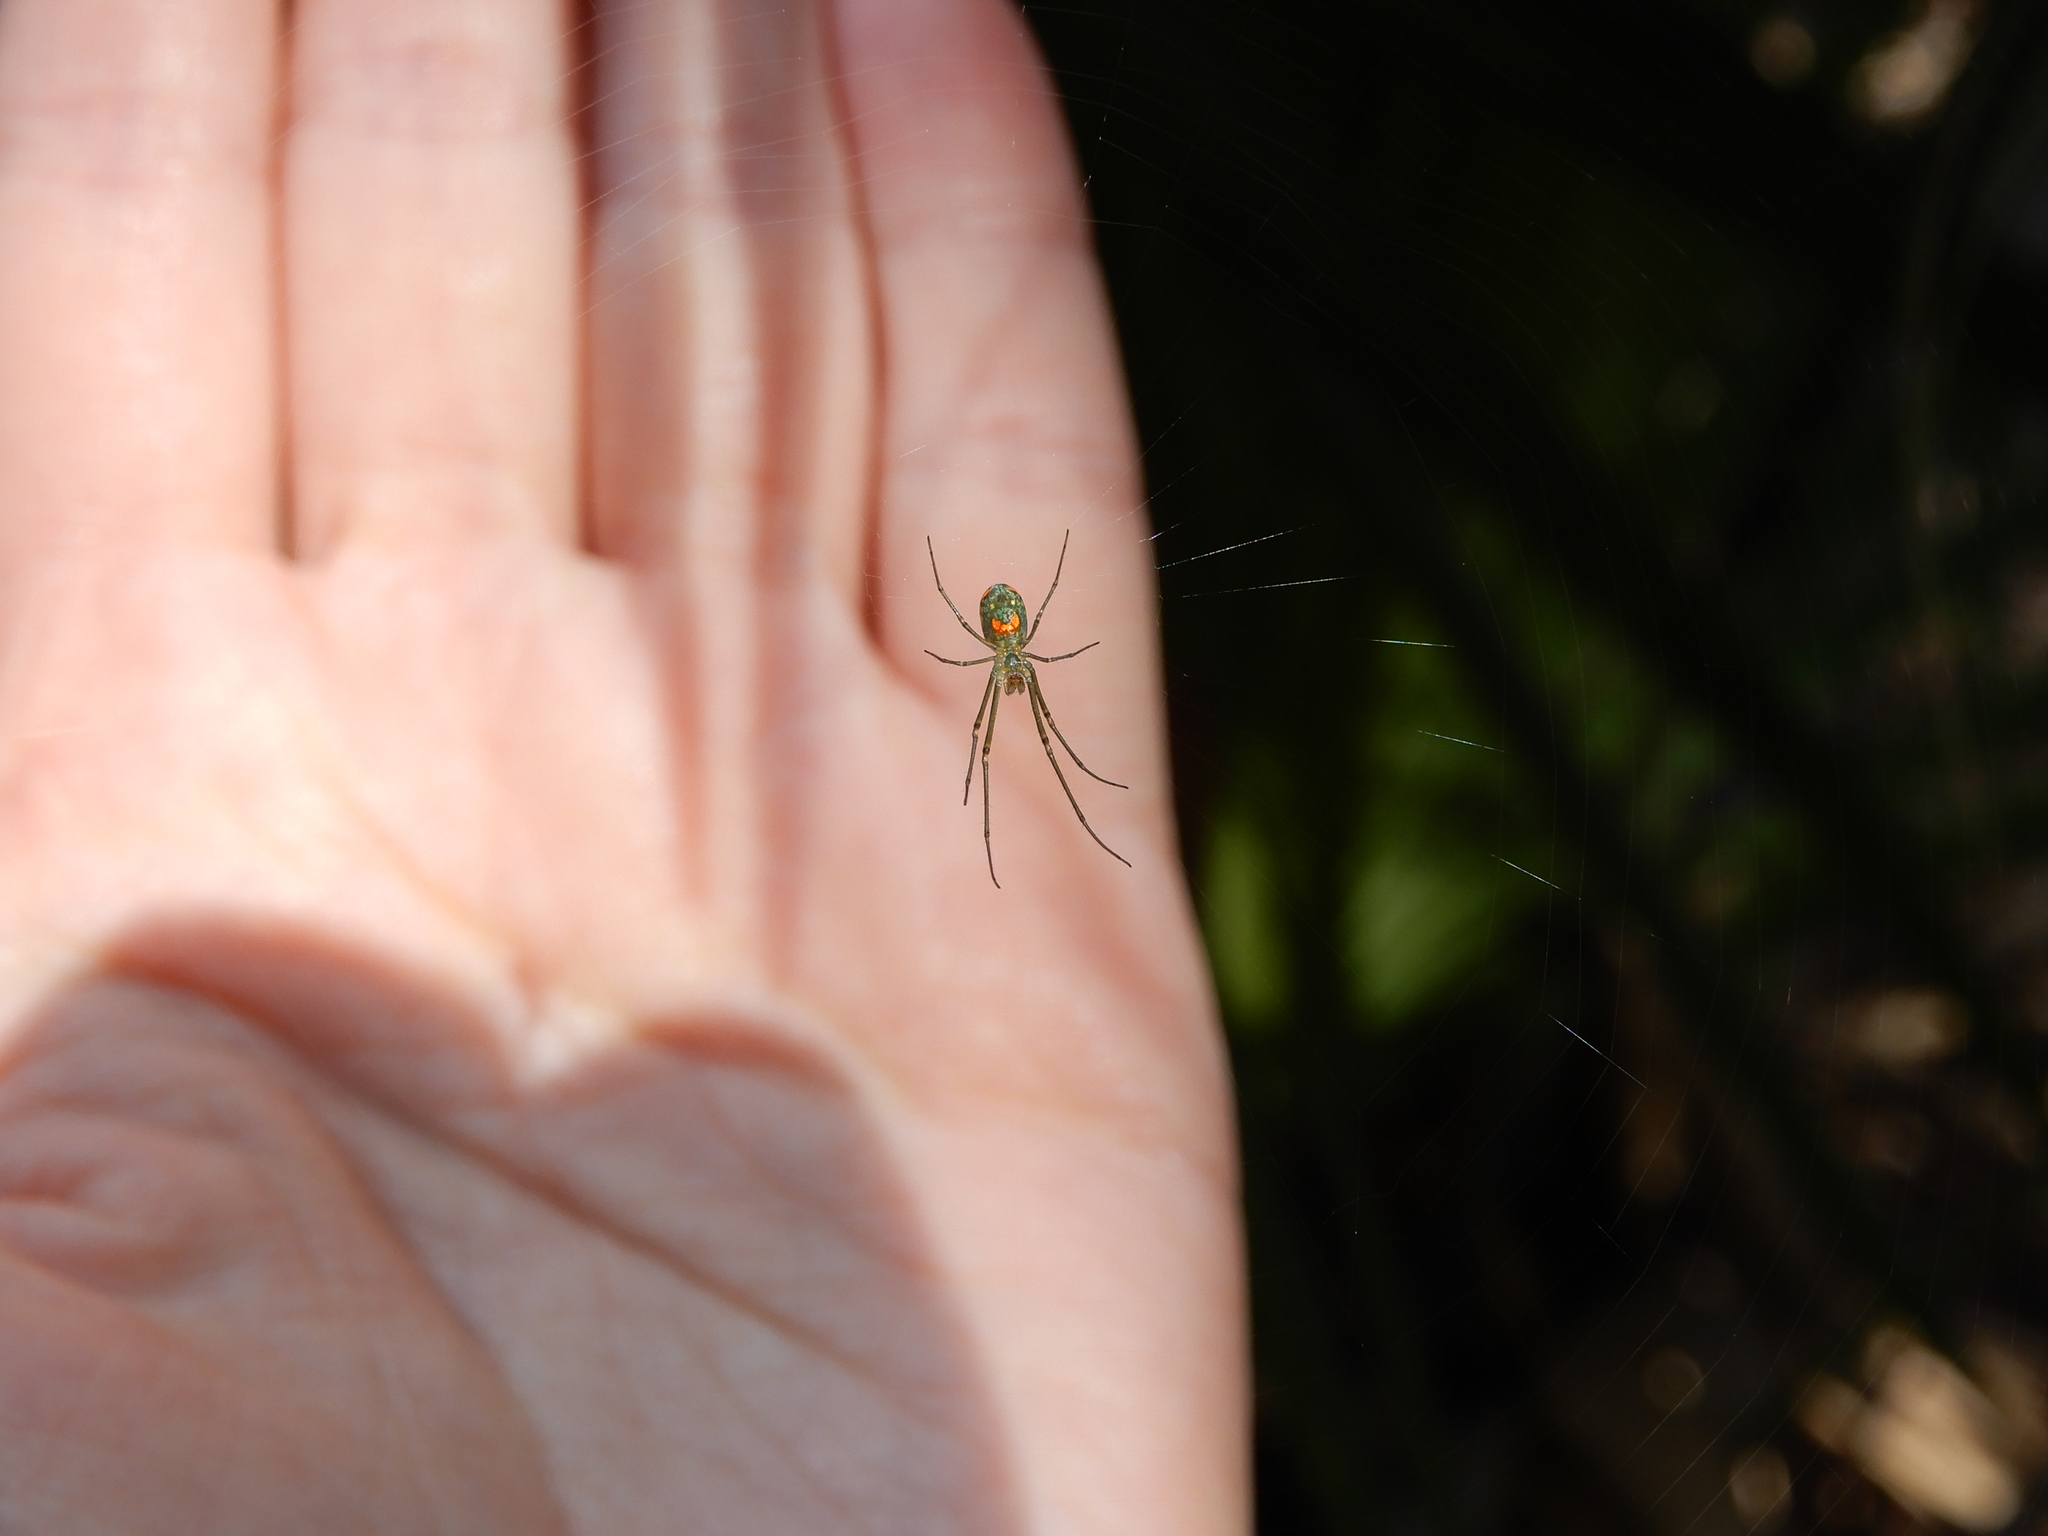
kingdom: Animalia
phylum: Arthropoda
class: Arachnida
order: Araneae
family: Tetragnathidae
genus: Leucauge
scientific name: Leucauge argyrobapta
